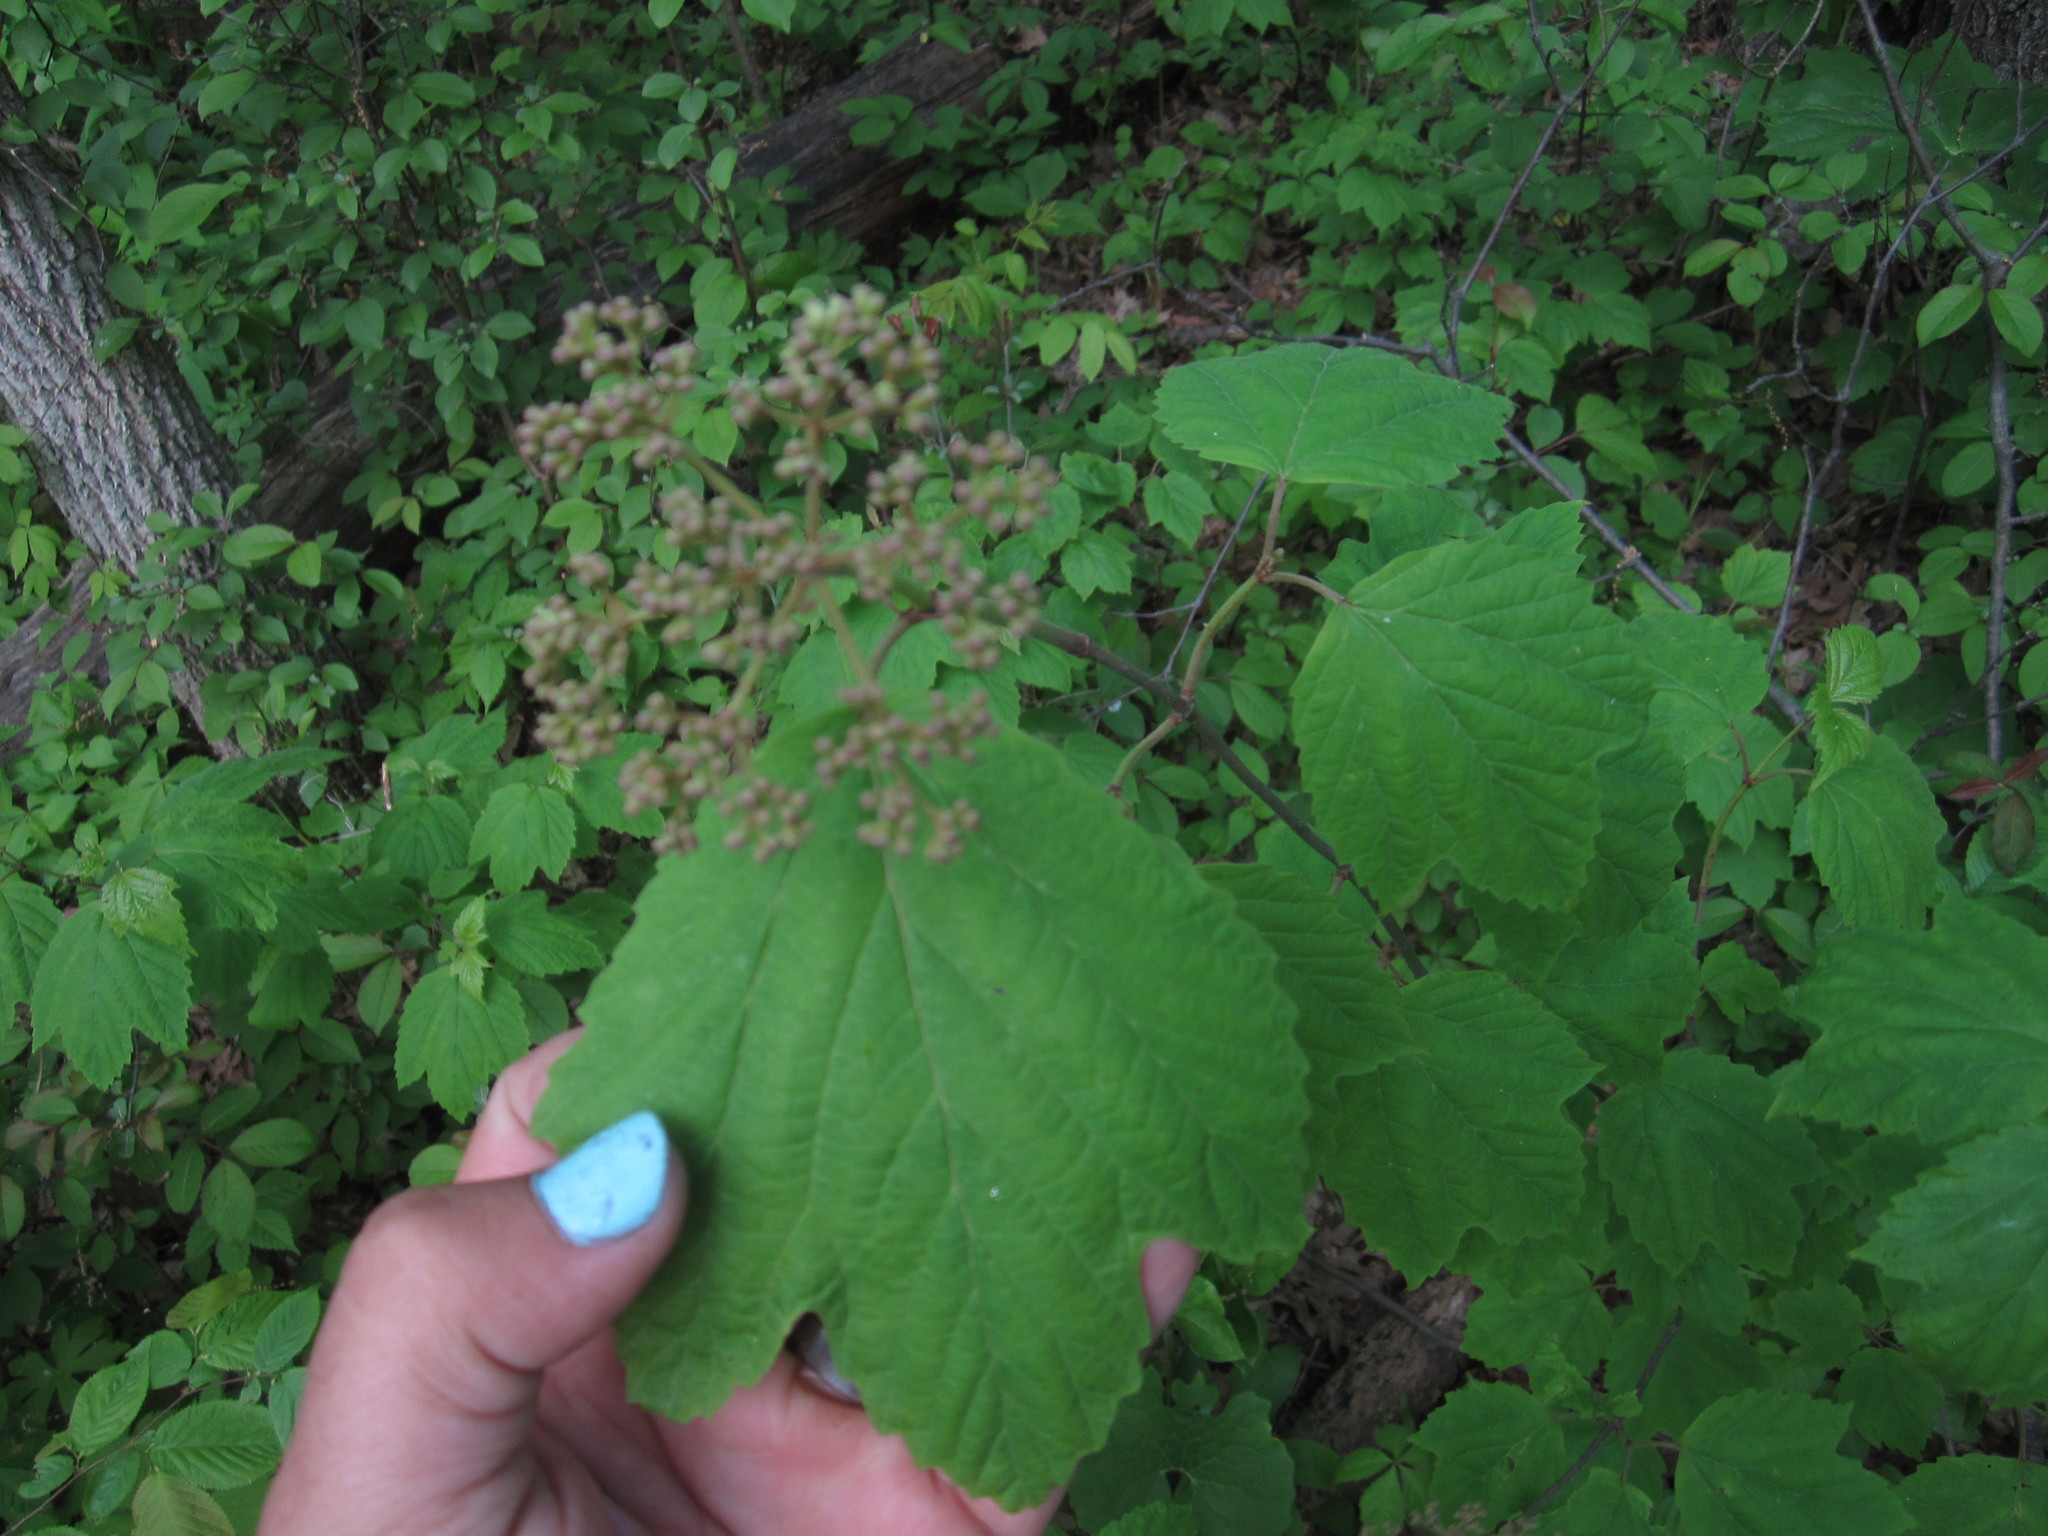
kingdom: Plantae
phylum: Tracheophyta
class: Magnoliopsida
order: Dipsacales
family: Viburnaceae
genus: Viburnum
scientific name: Viburnum acerifolium
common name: Dockmackie
